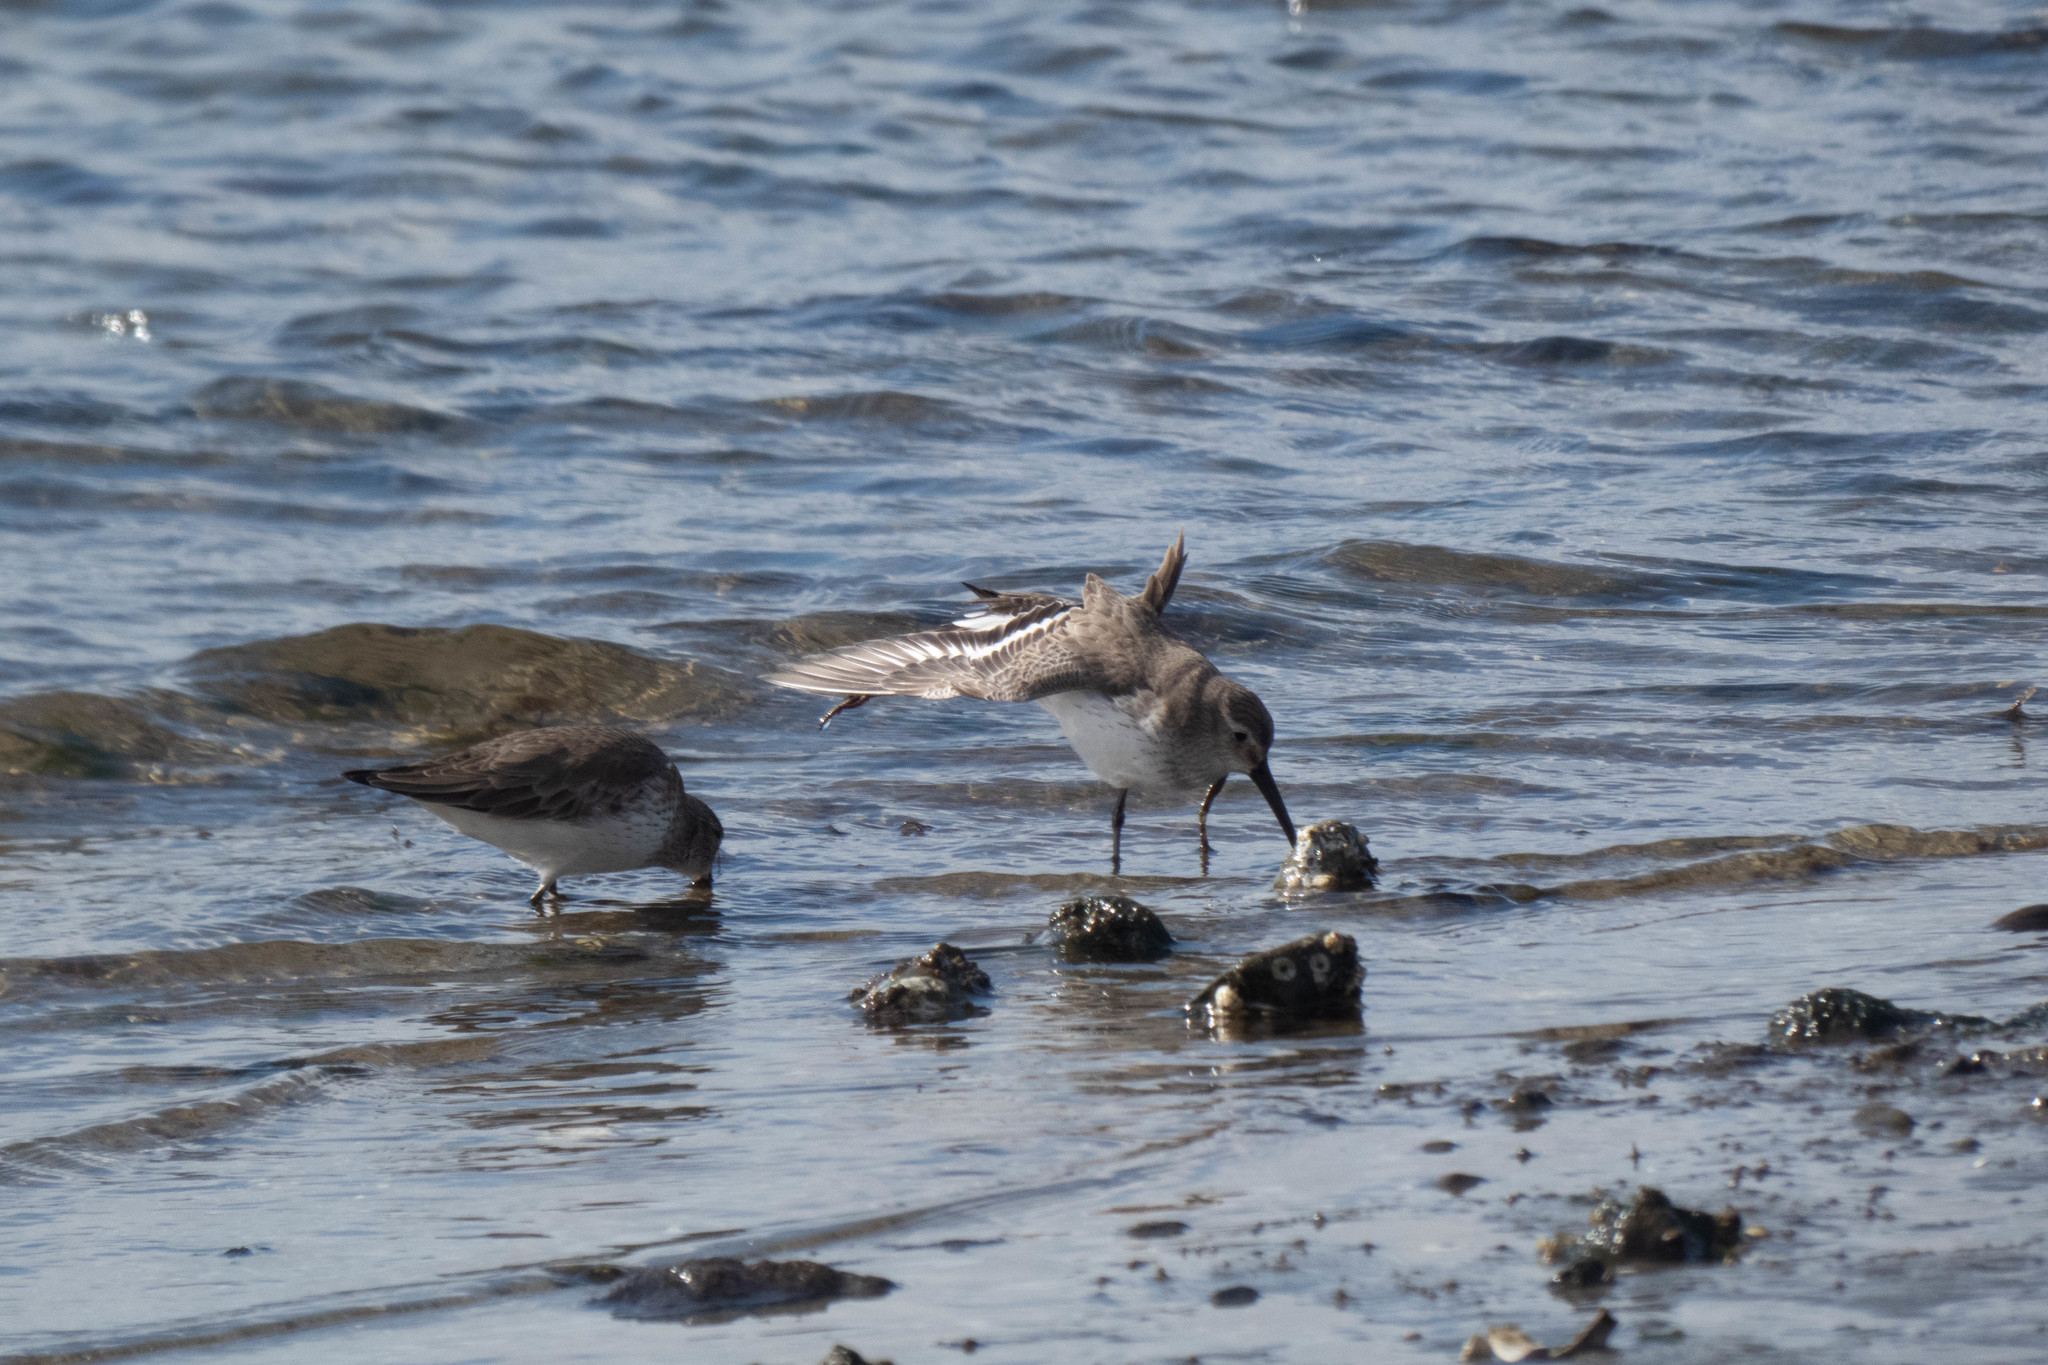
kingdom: Animalia
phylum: Chordata
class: Aves
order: Charadriiformes
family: Scolopacidae
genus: Calidris
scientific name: Calidris alpina
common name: Dunlin
